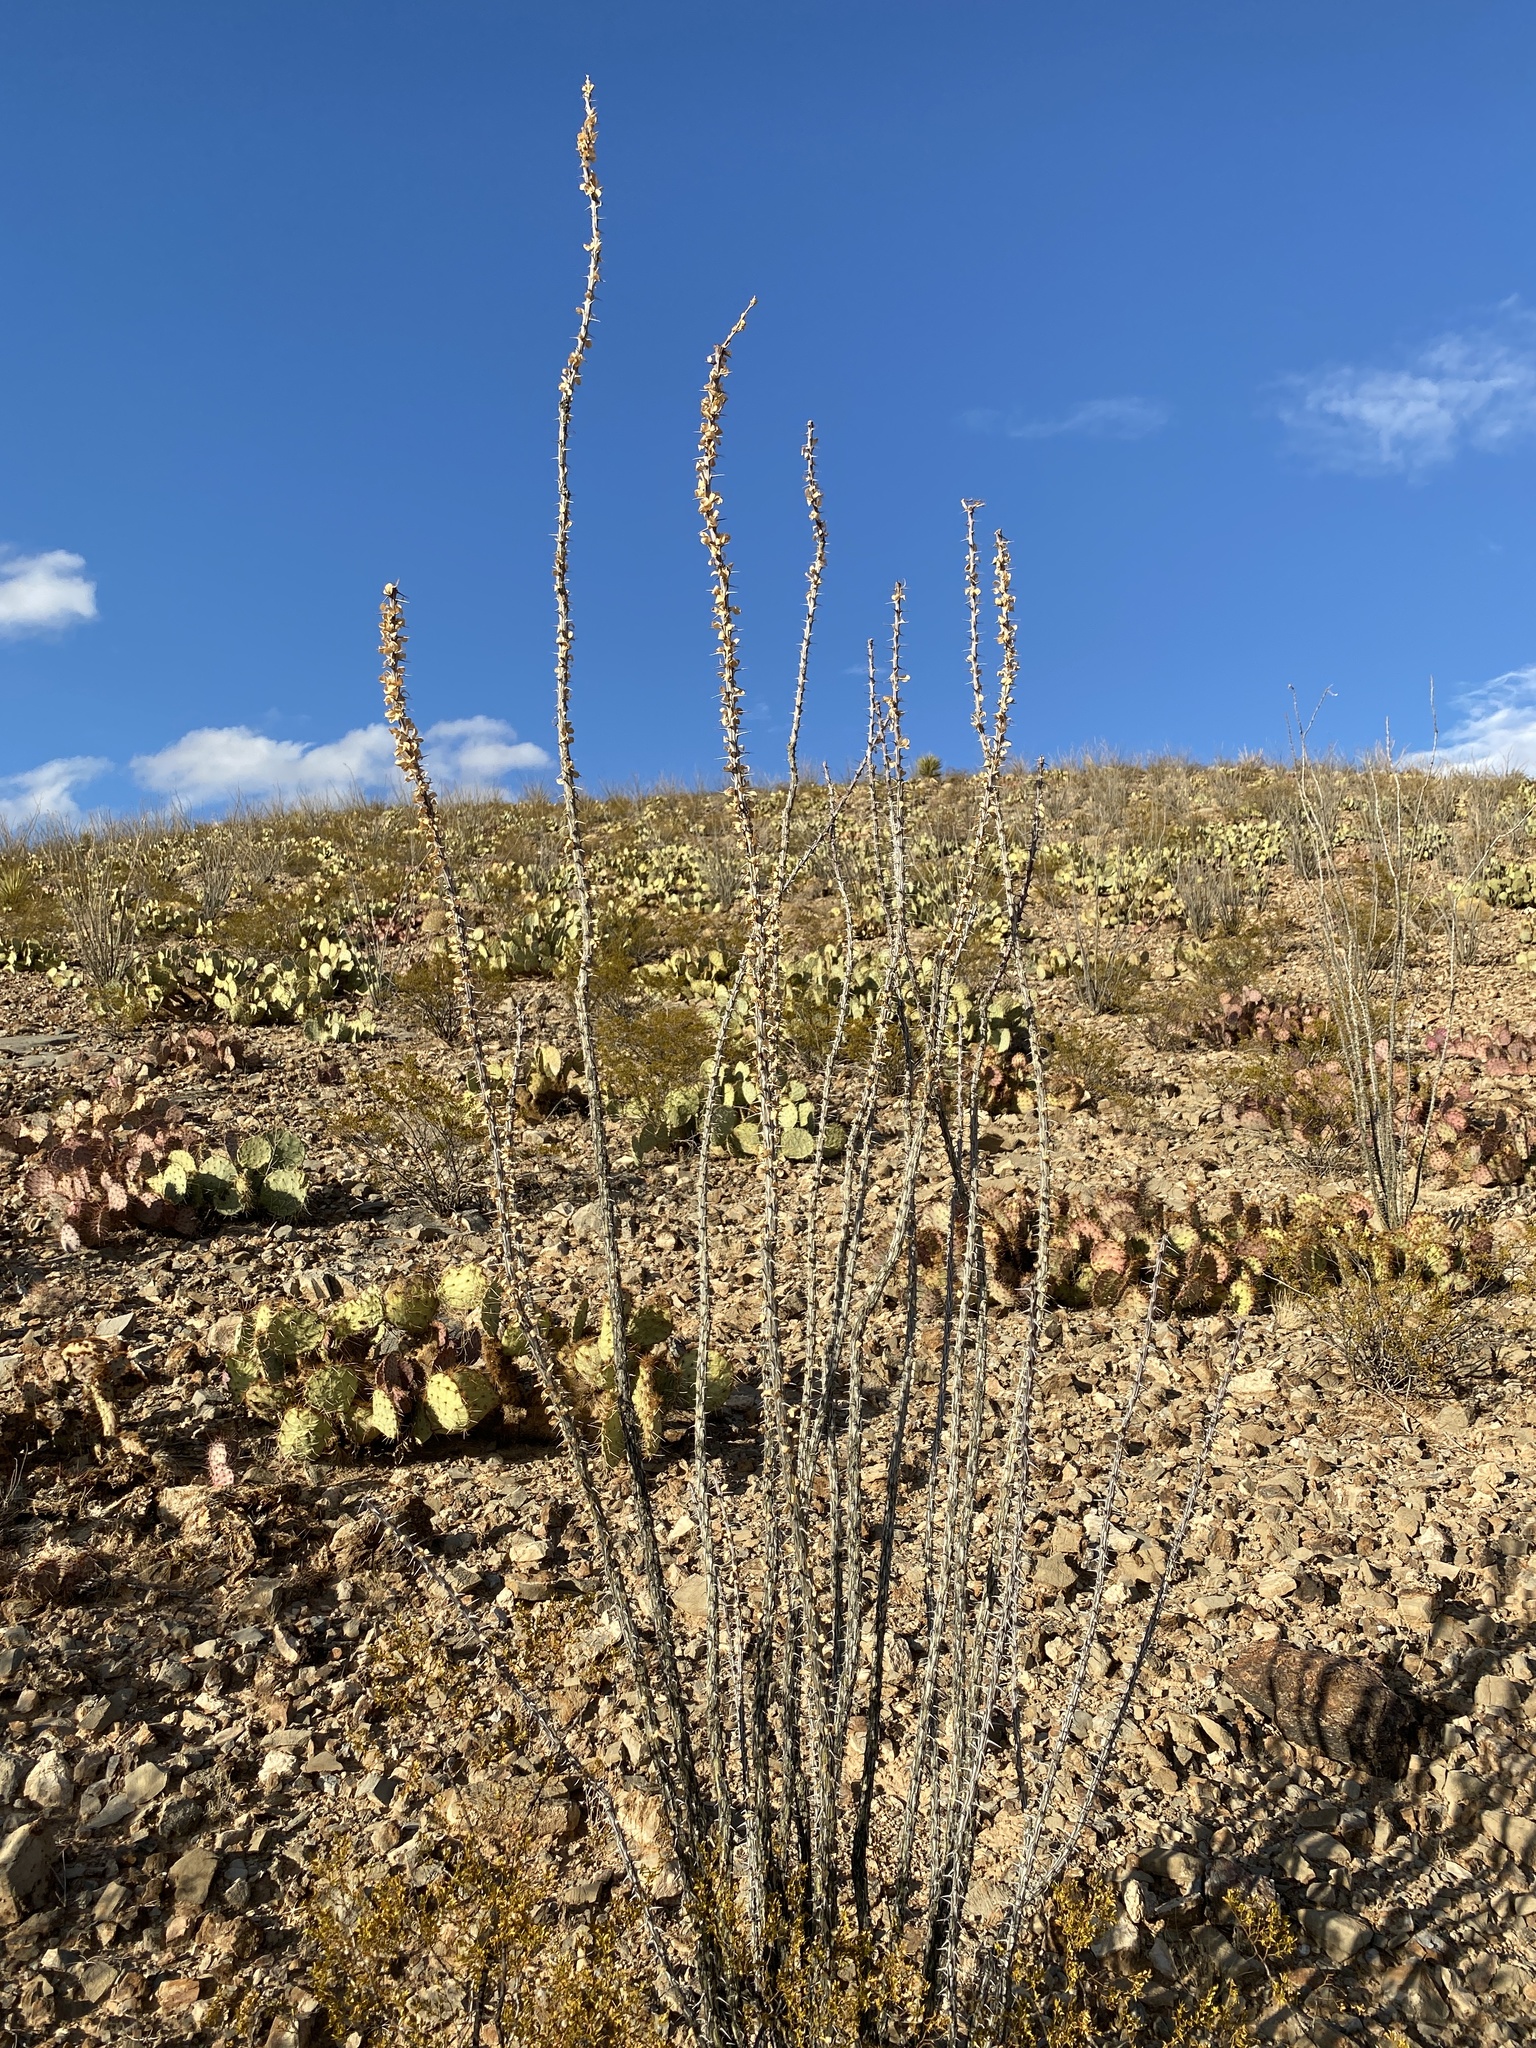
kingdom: Plantae
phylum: Tracheophyta
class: Magnoliopsida
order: Ericales
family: Fouquieriaceae
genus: Fouquieria
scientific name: Fouquieria splendens
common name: Vine-cactus
